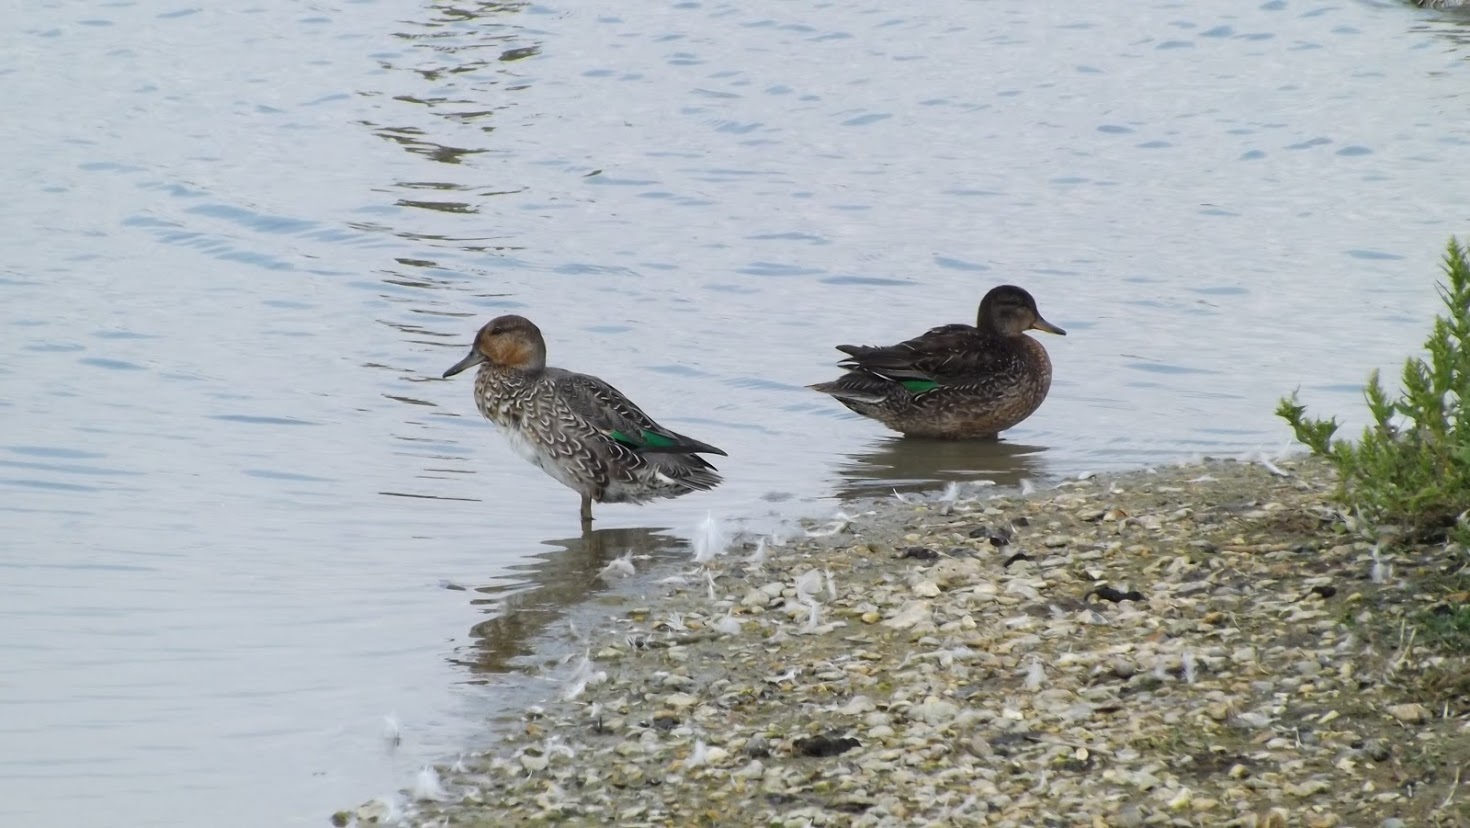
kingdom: Animalia
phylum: Chordata
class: Aves
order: Anseriformes
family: Anatidae
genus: Anas
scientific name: Anas crecca
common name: Eurasian teal
